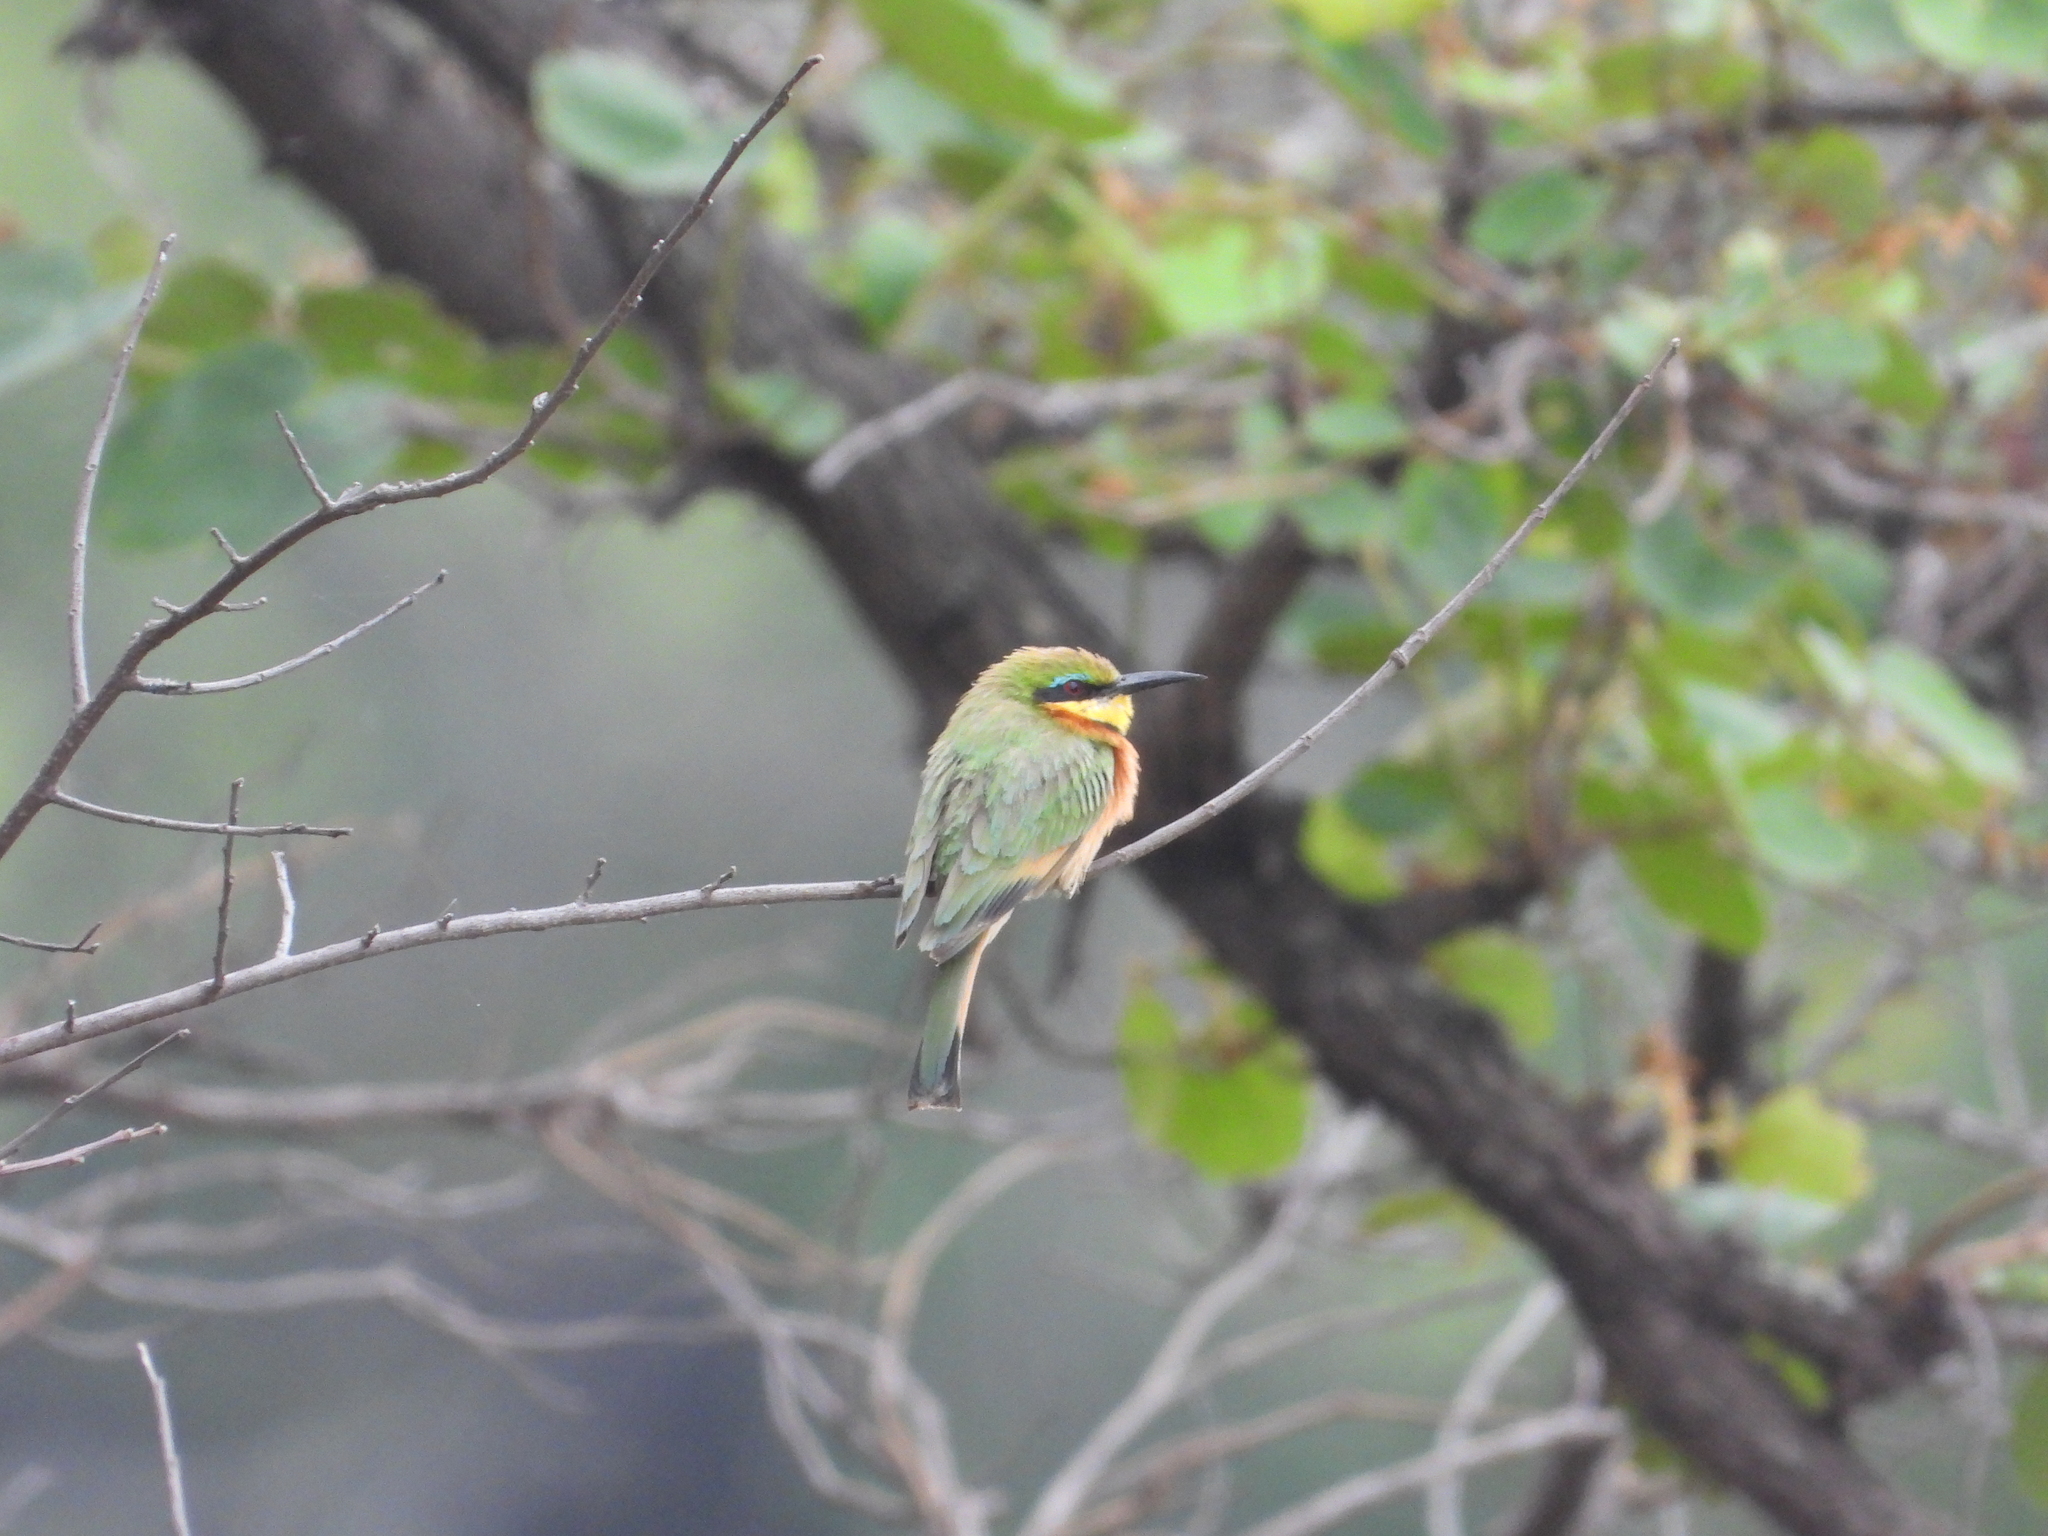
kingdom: Animalia
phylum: Chordata
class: Aves
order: Coraciiformes
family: Meropidae
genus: Merops
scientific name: Merops pusillus
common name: Little bee-eater
